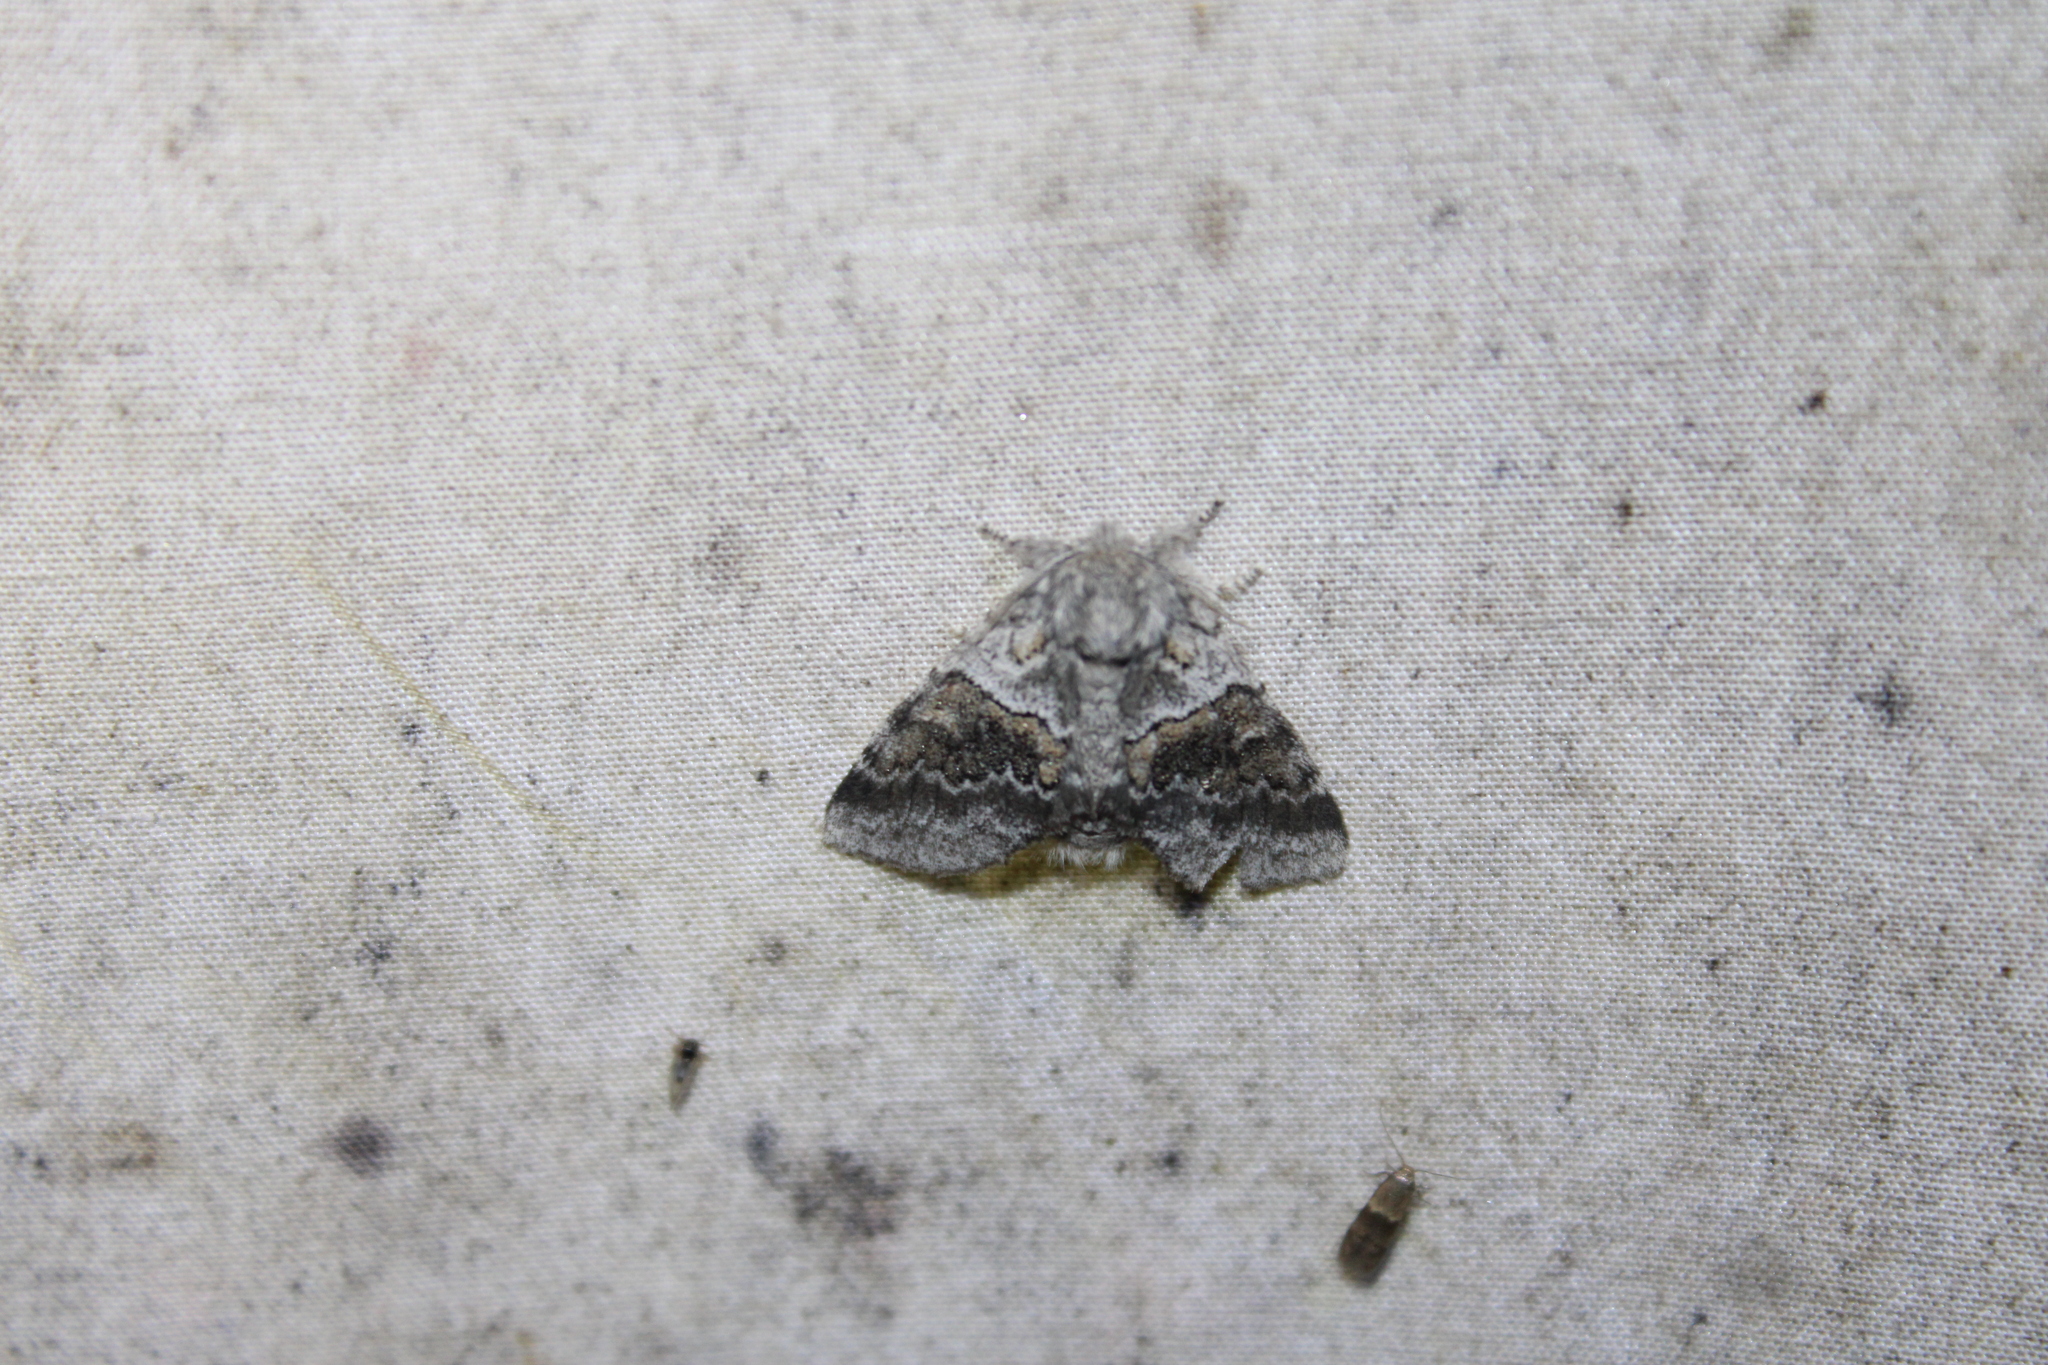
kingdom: Animalia
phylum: Arthropoda
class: Insecta
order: Lepidoptera
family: Notodontidae
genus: Gluphisia
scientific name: Gluphisia septentrionis
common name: Common gluphisia
